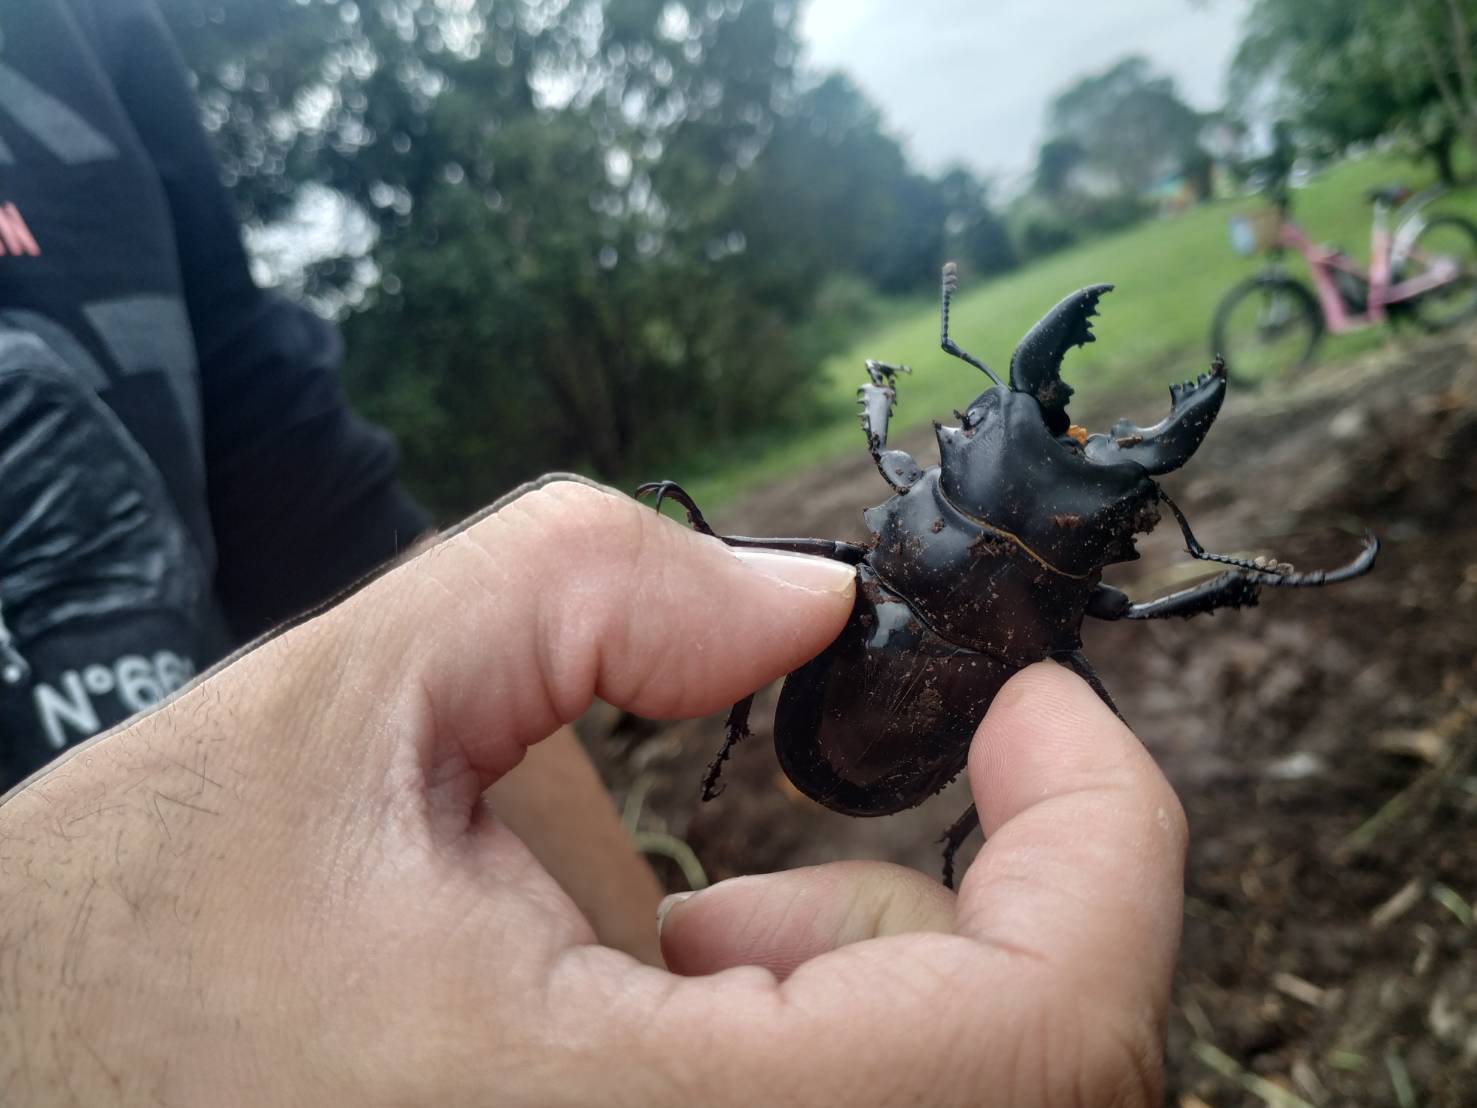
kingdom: Animalia
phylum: Arthropoda
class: Insecta
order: Coleoptera
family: Lucanidae
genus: Odontolabis
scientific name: Odontolabis siva
